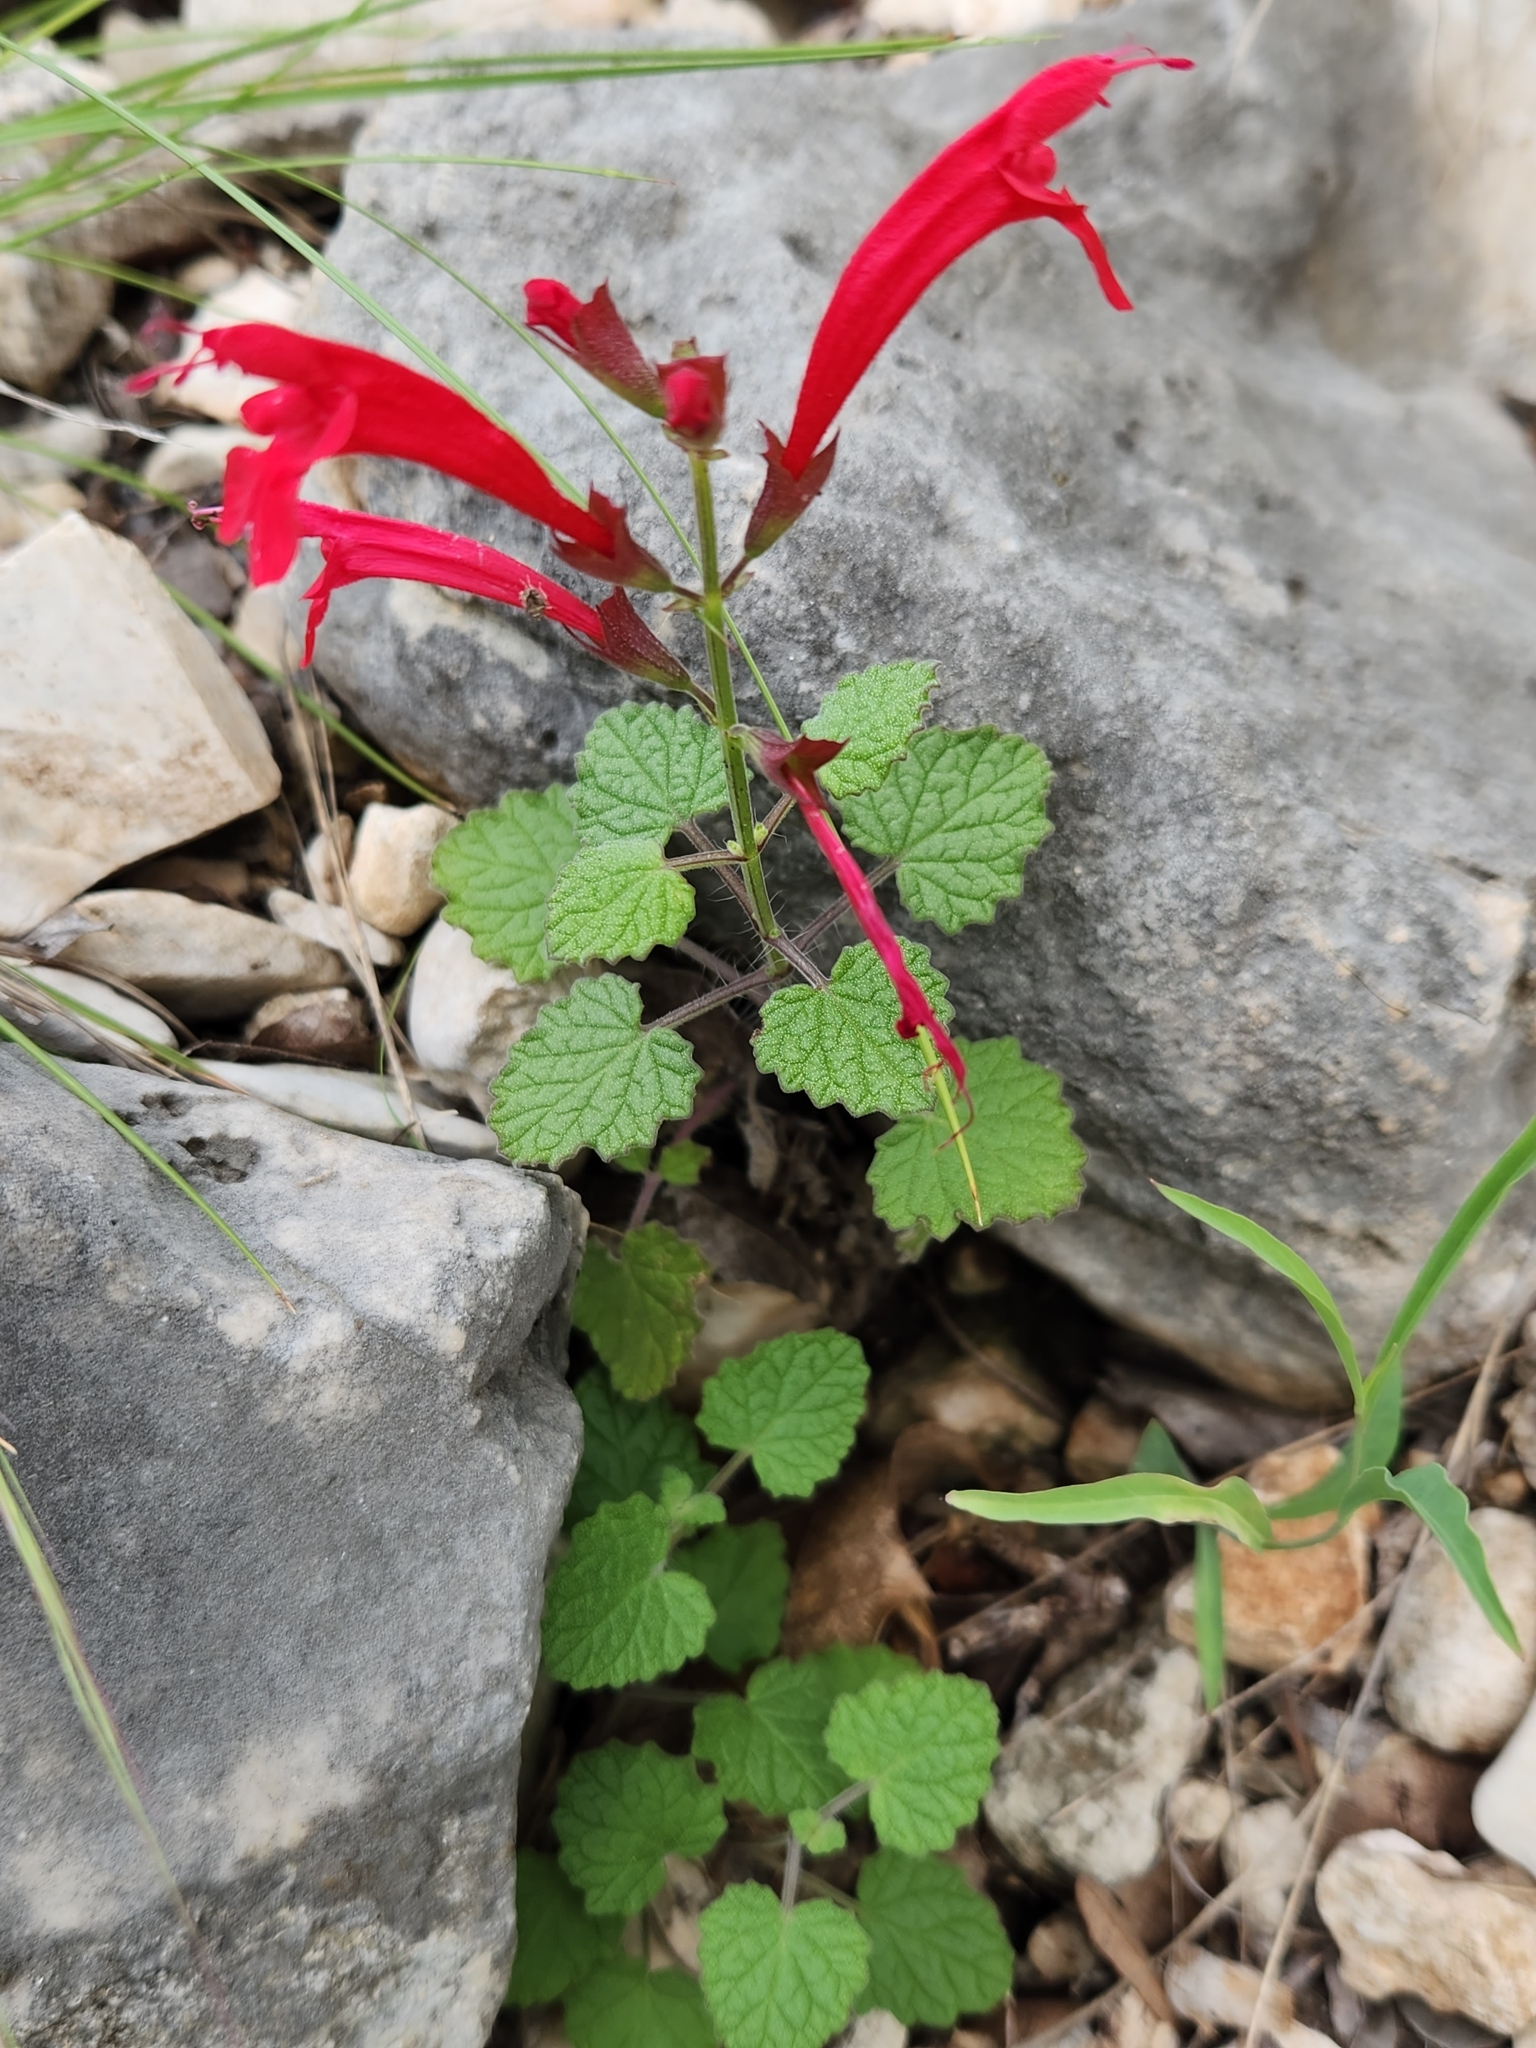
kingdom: Plantae
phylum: Tracheophyta
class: Magnoliopsida
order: Lamiales
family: Lamiaceae
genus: Salvia
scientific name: Salvia roemeriana
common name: Cedar sage
